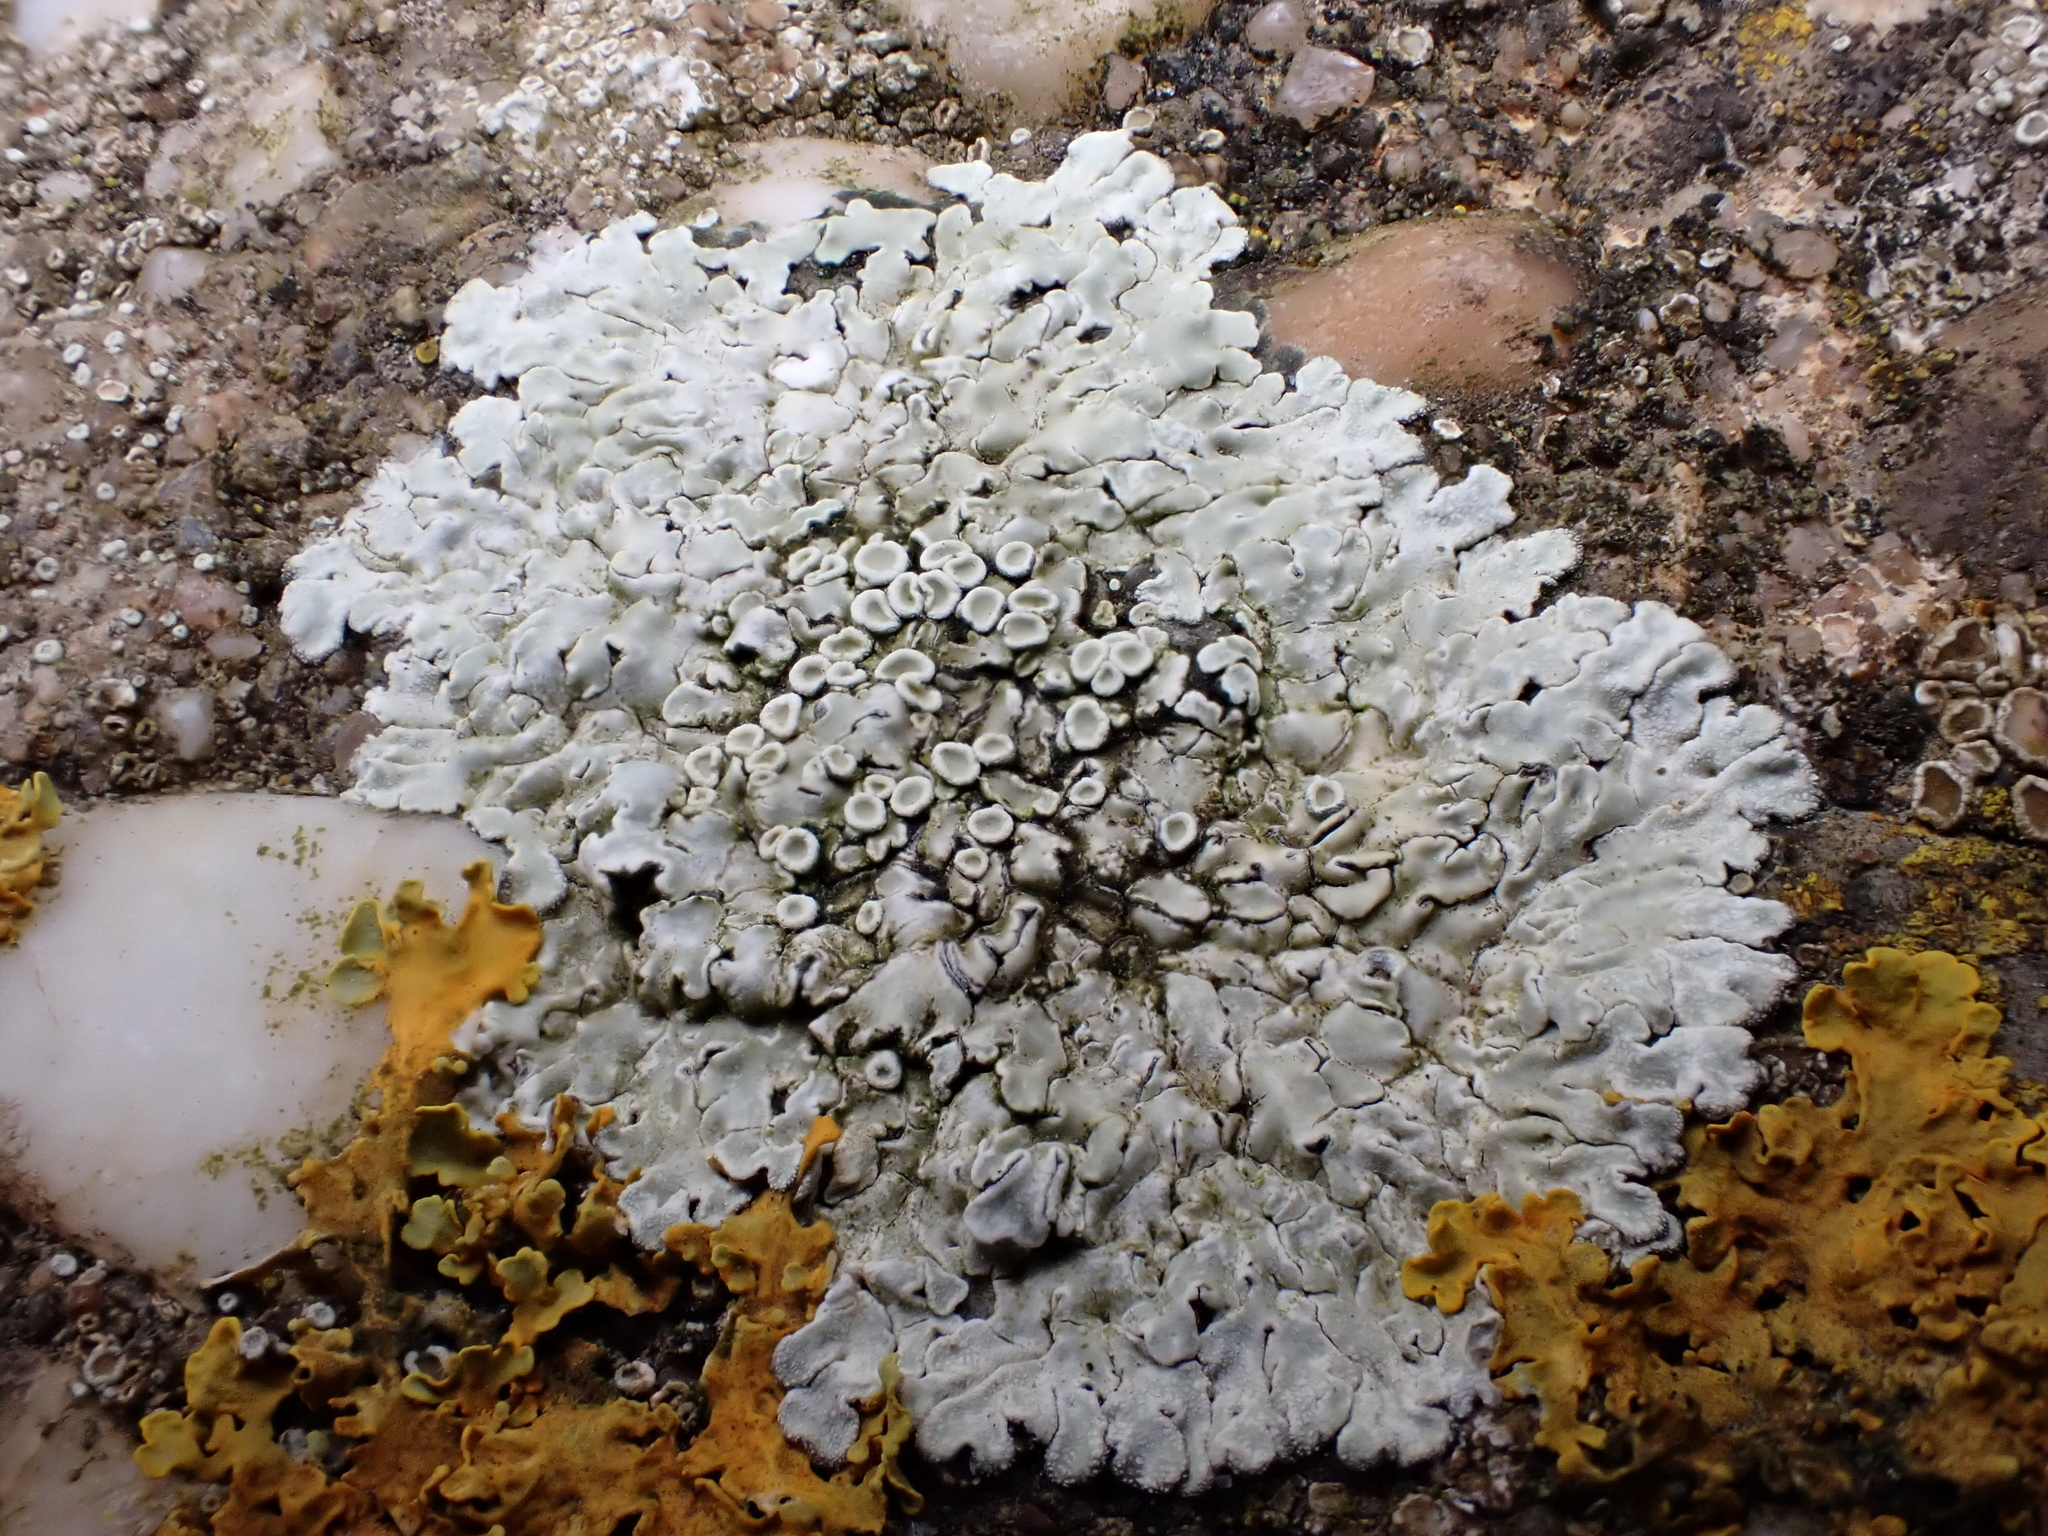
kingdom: Fungi
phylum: Ascomycota
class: Lecanoromycetes
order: Lecanorales
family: Lecanoraceae
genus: Protoparmeliopsis
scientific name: Protoparmeliopsis muralis
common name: Stonewall rim lichen
